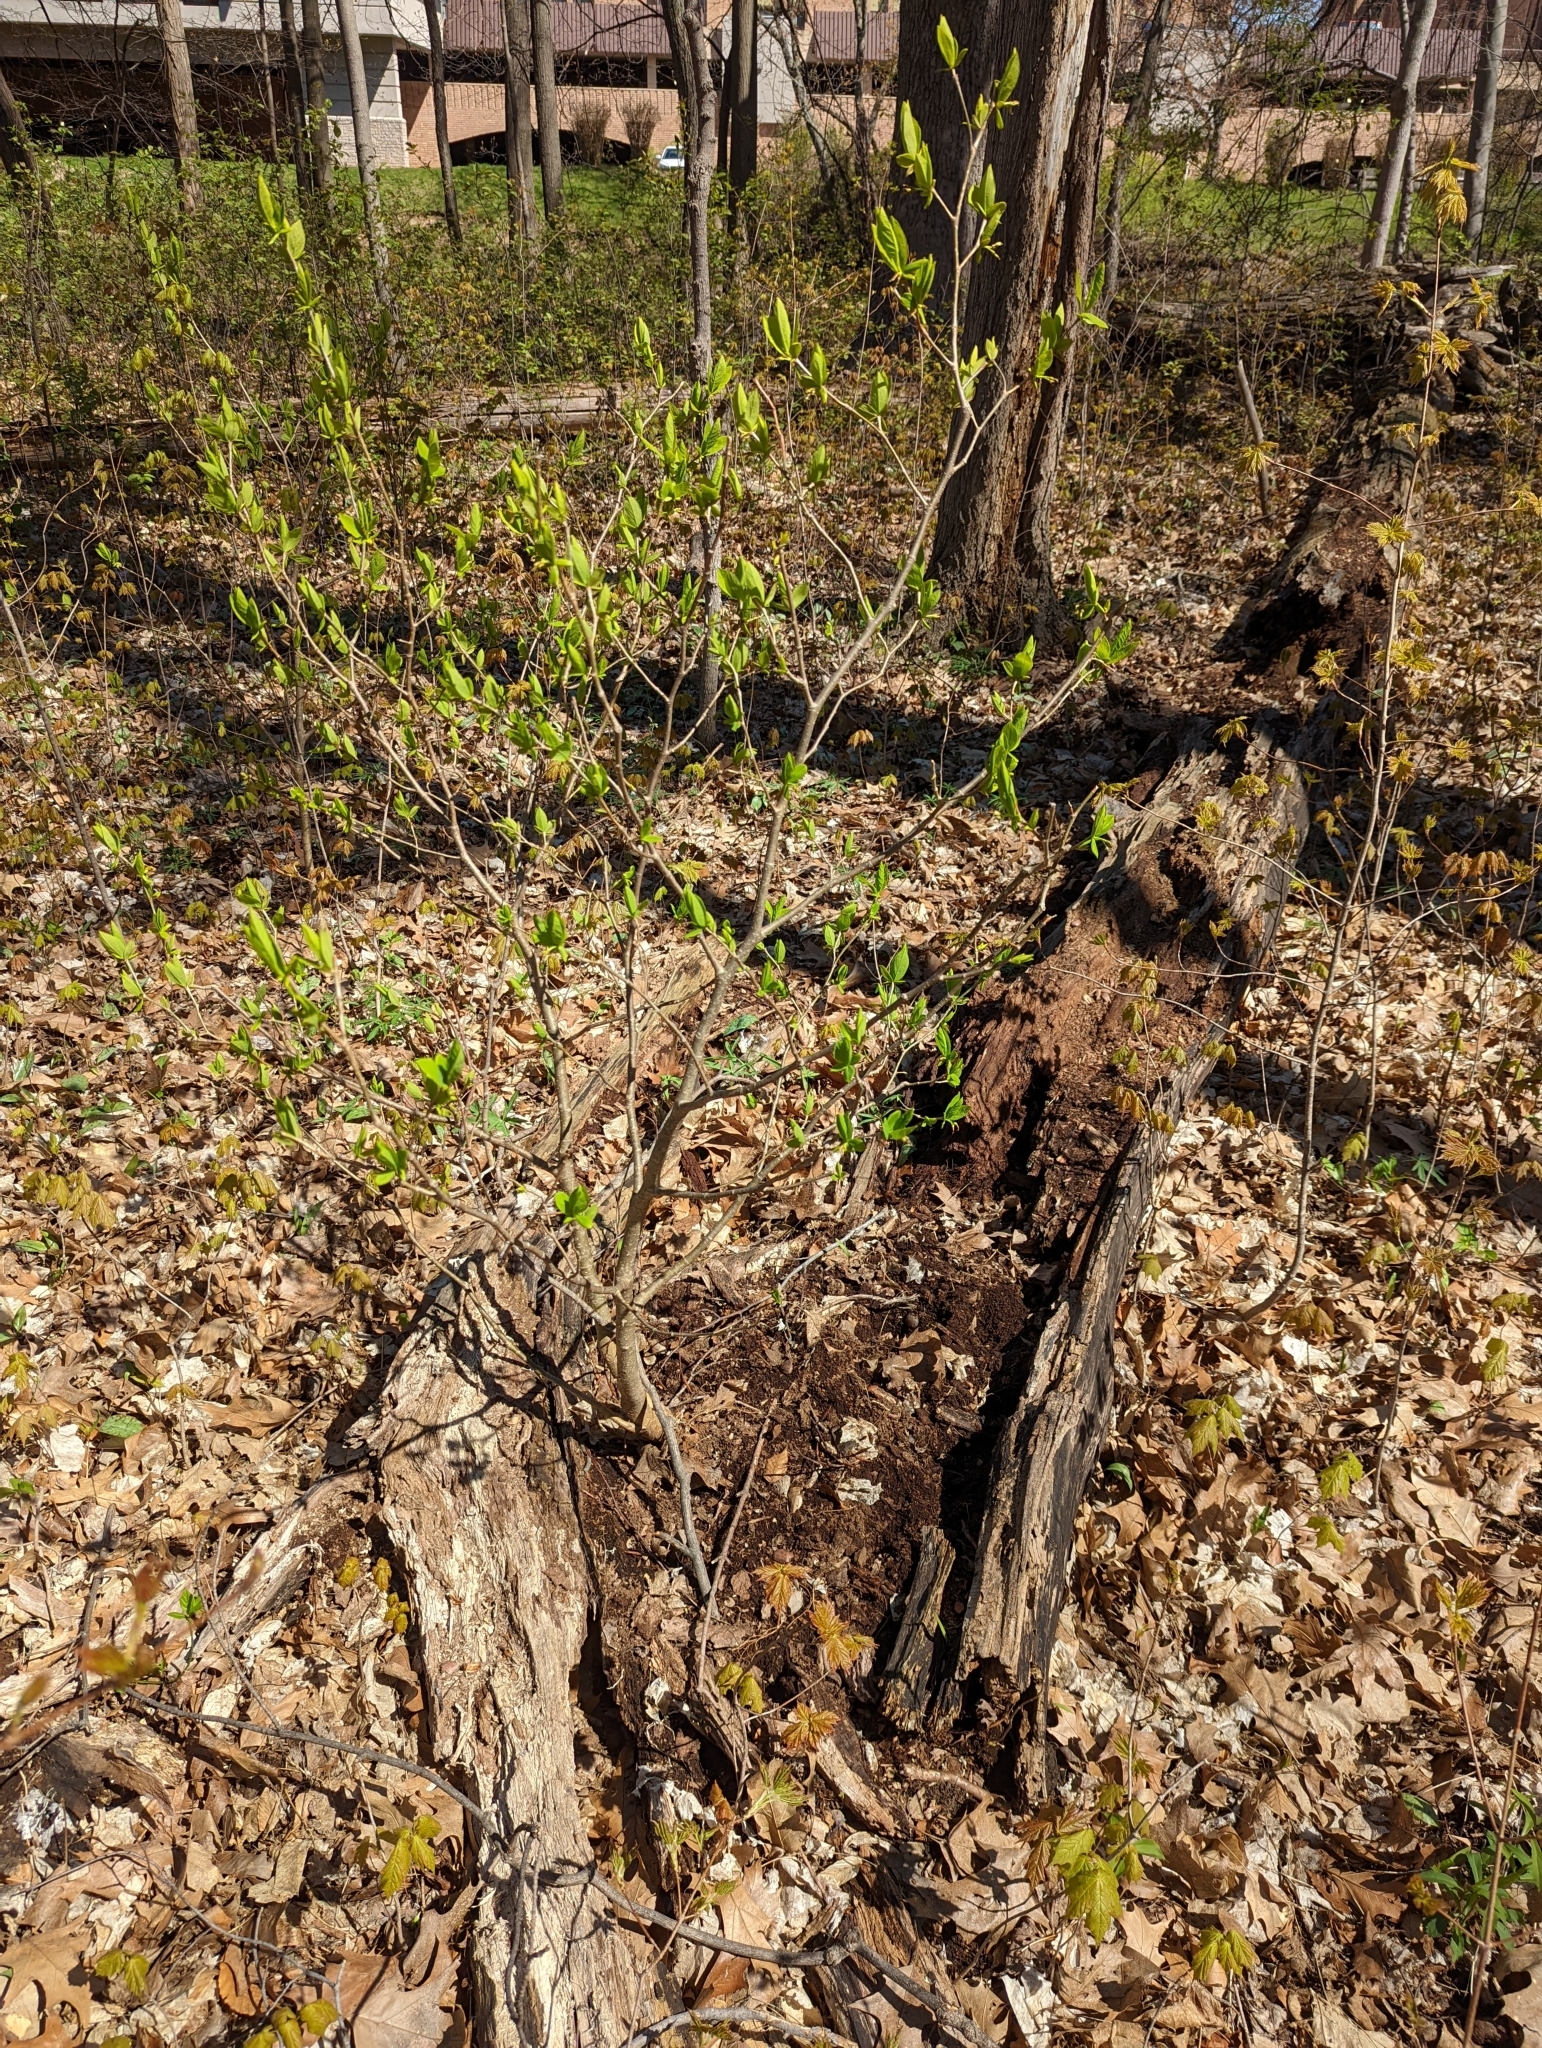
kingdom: Plantae
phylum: Tracheophyta
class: Magnoliopsida
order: Malvales
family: Thymelaeaceae
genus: Dirca
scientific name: Dirca palustris
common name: Leatherwood
